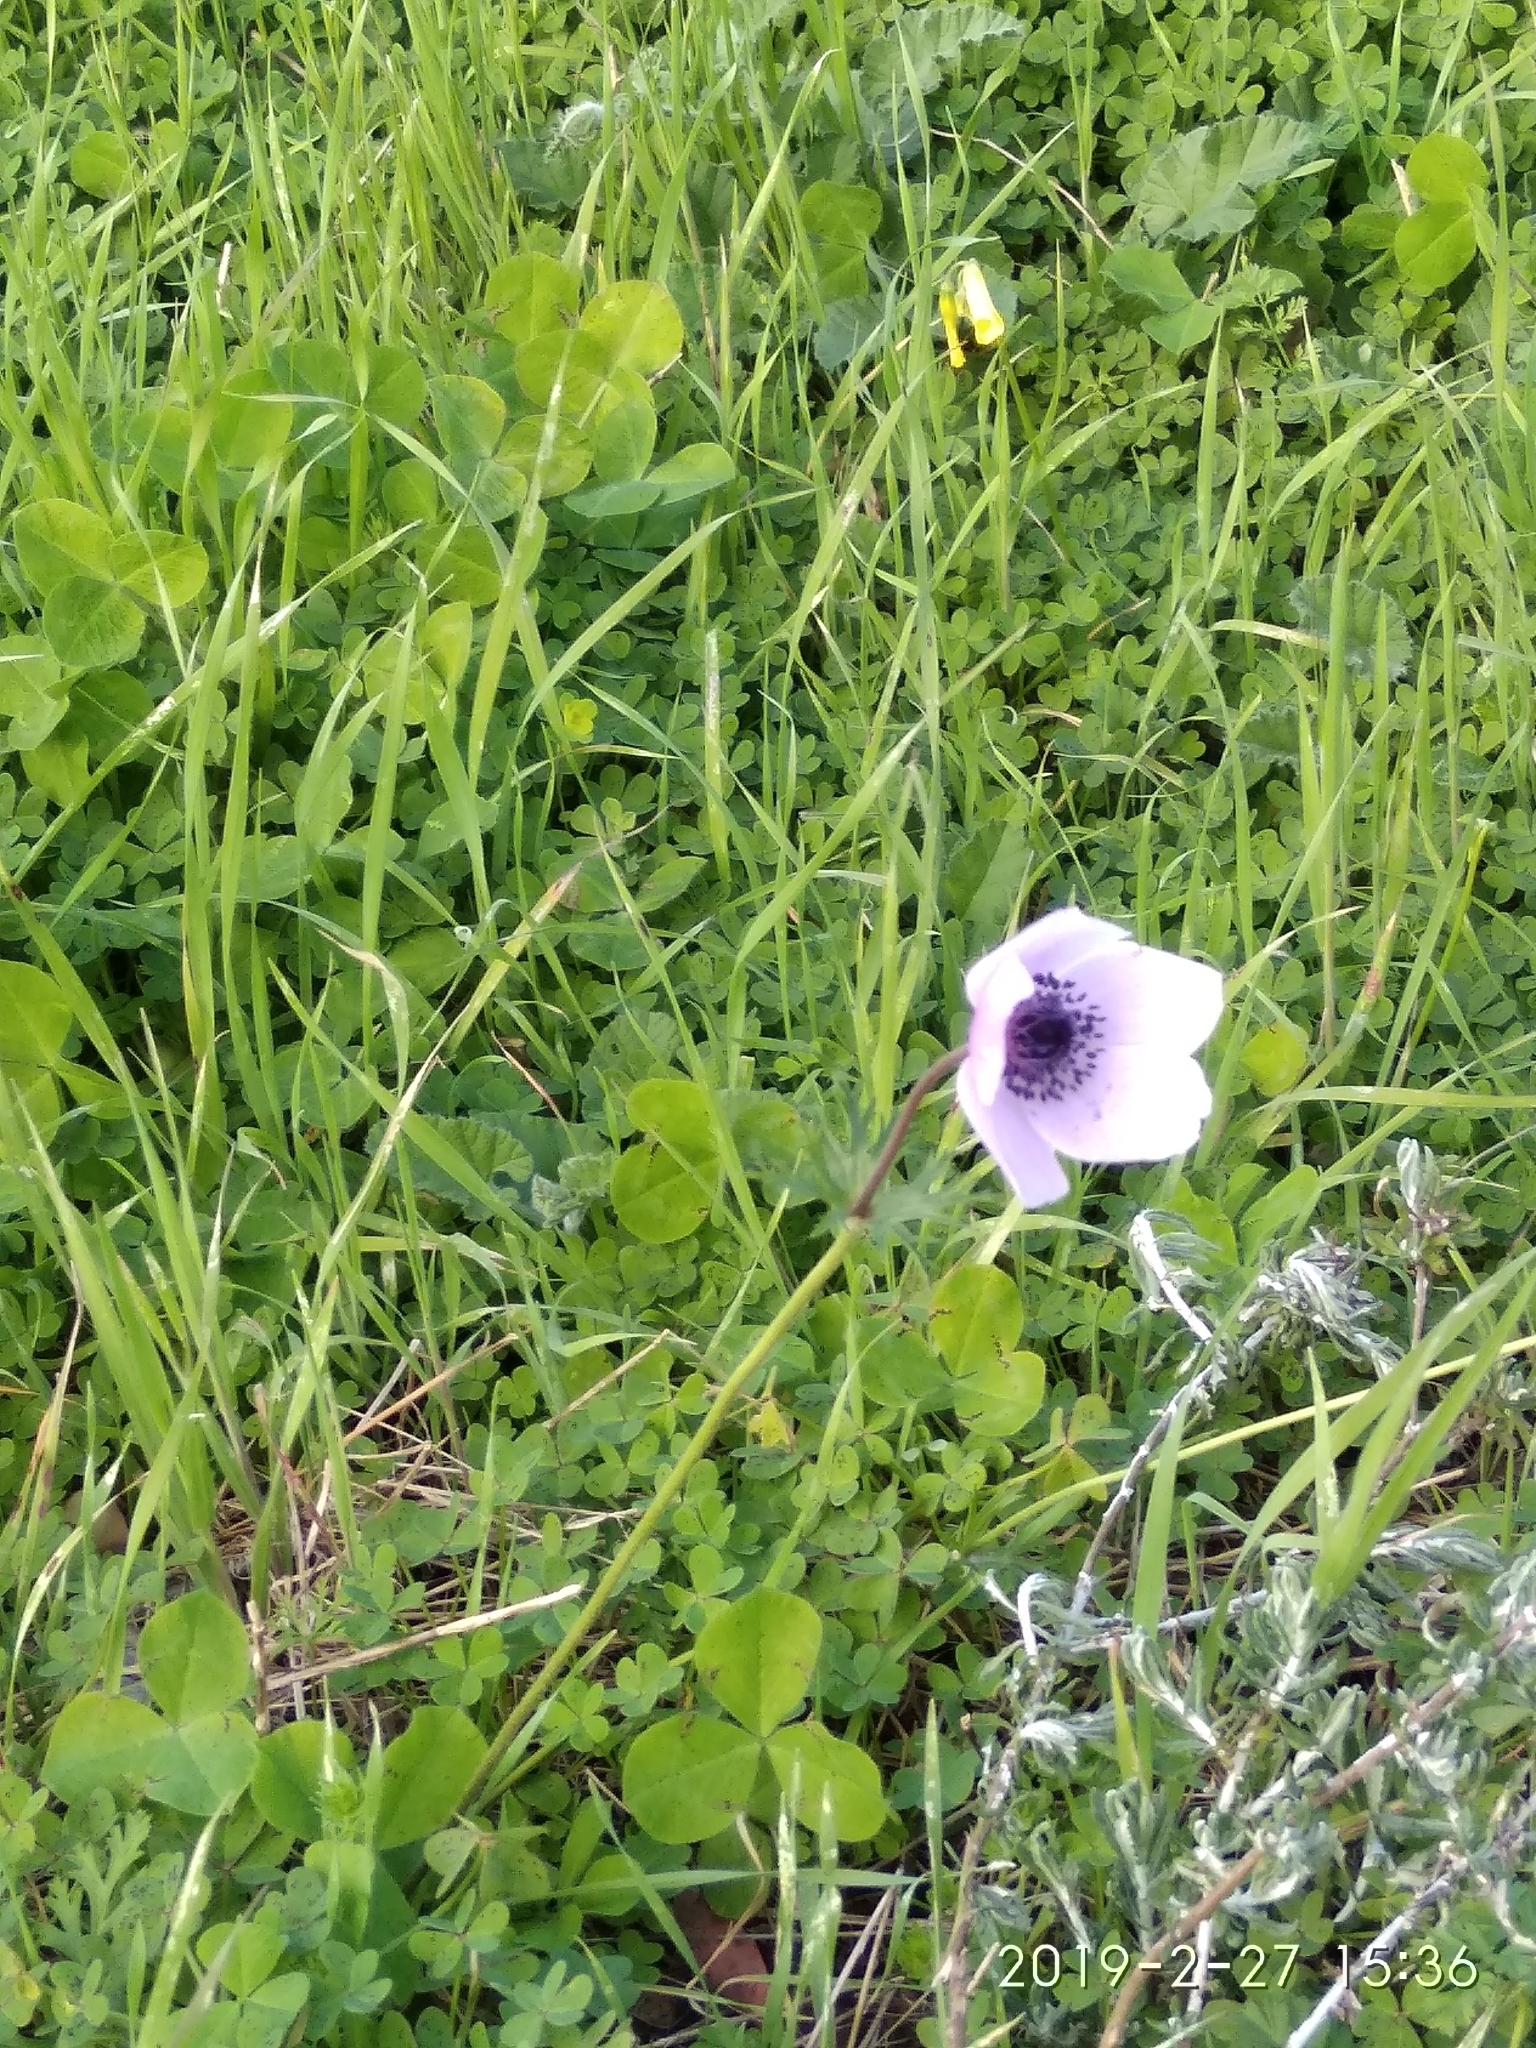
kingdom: Plantae
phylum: Tracheophyta
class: Magnoliopsida
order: Ranunculales
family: Ranunculaceae
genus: Anemone
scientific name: Anemone coronaria
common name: Poppy anemone
